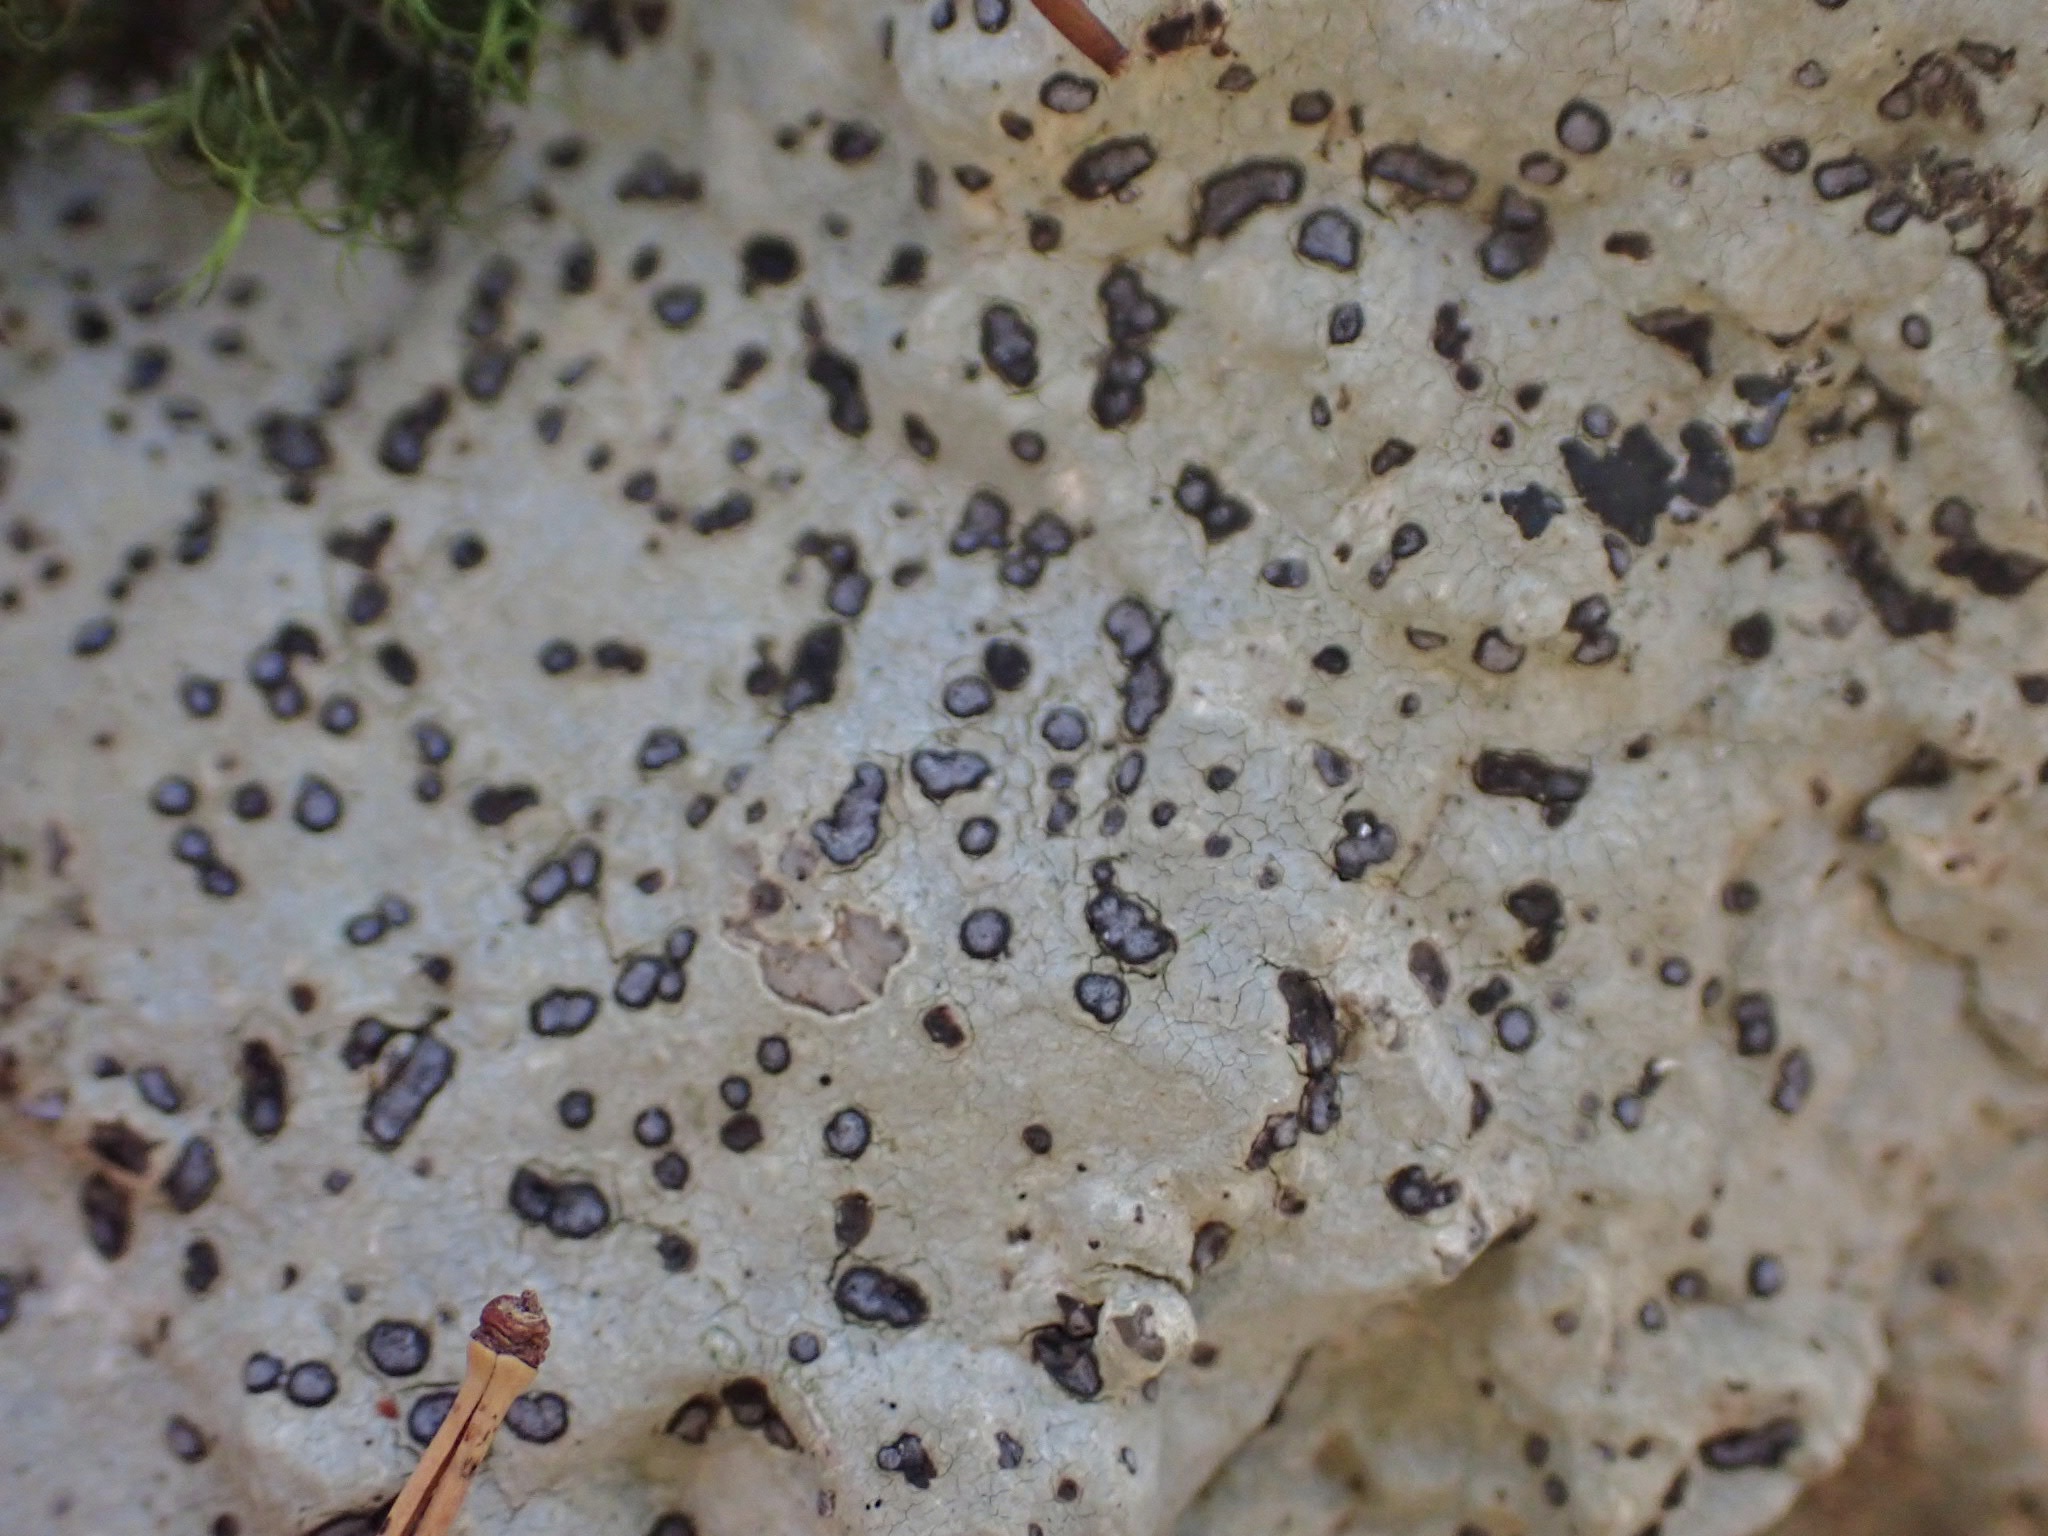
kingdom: Fungi
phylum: Ascomycota
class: Lecanoromycetes
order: Lecideales
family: Lecideaceae
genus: Porpidia
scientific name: Porpidia albocaerulescens
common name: Smokey-eyed boulder lichen
